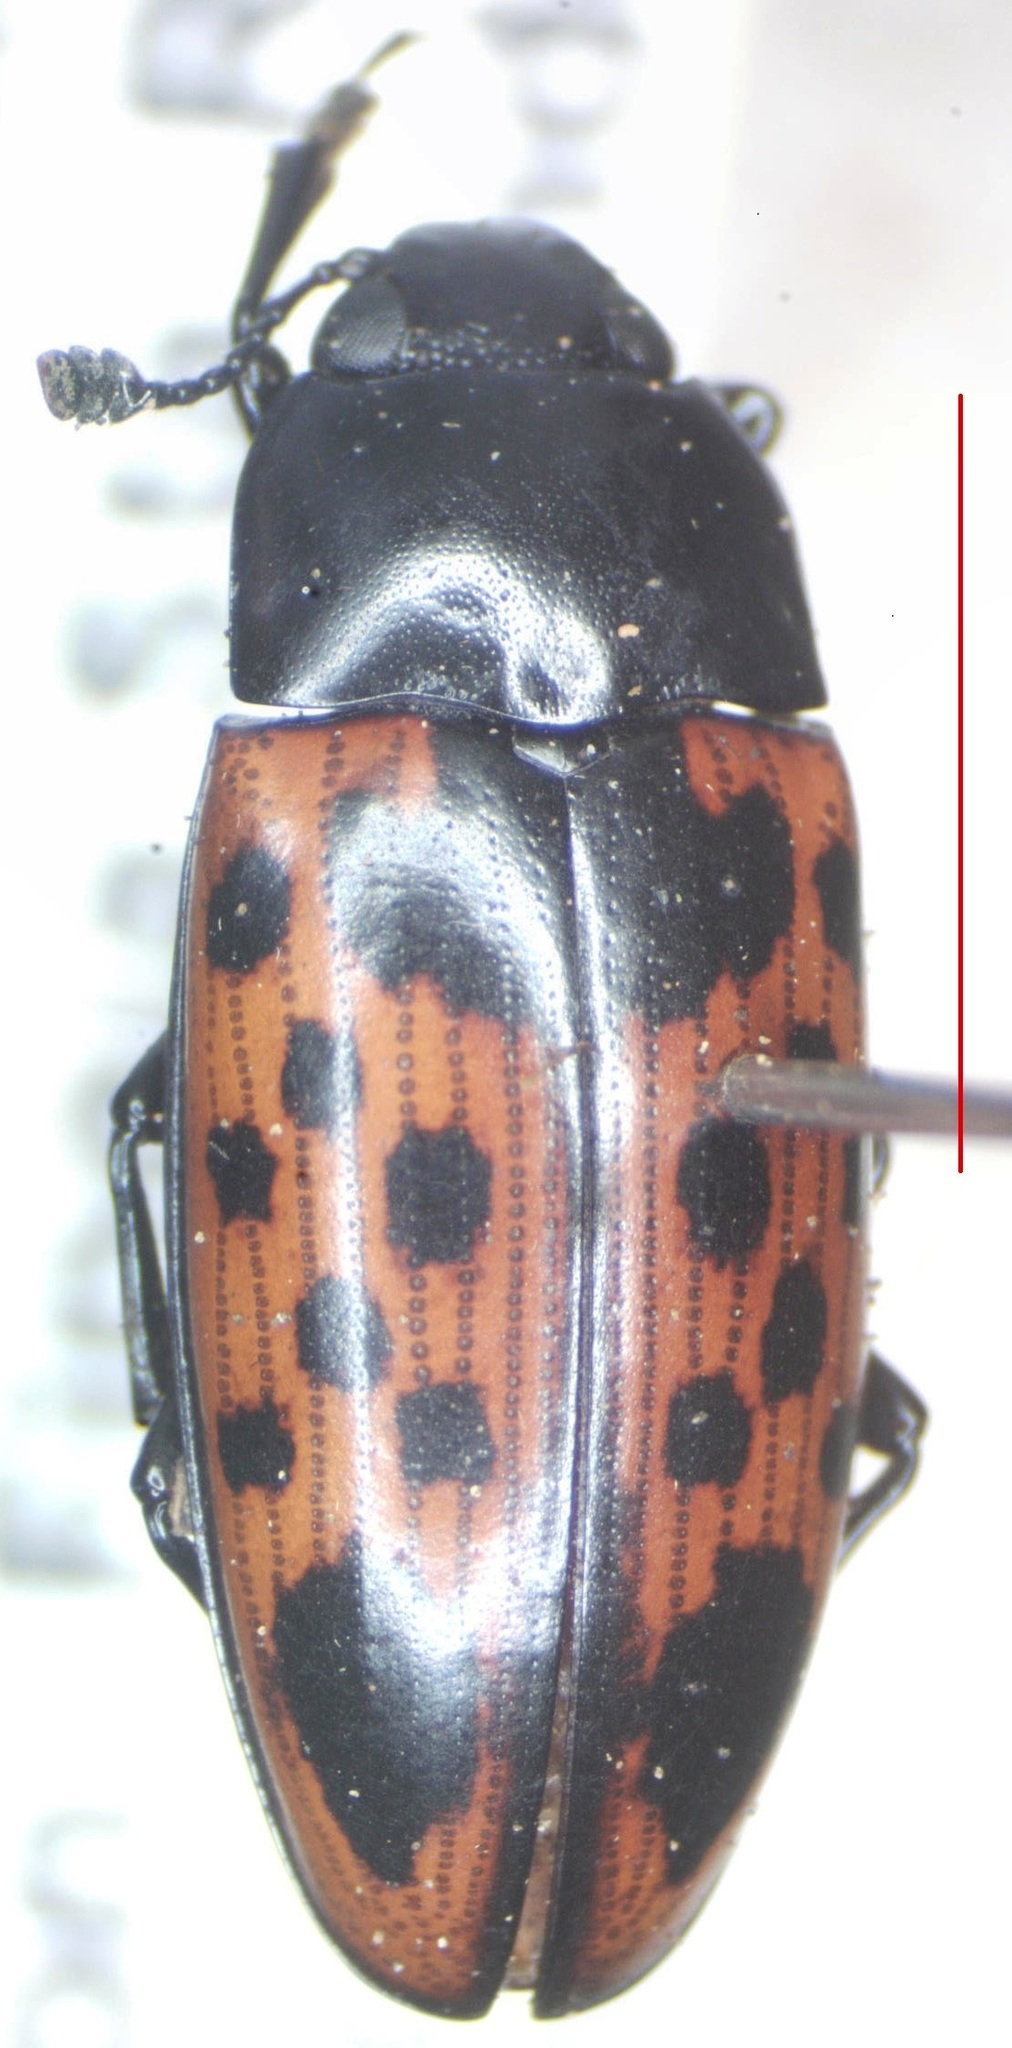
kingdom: Animalia
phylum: Arthropoda
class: Insecta
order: Coleoptera
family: Erotylidae
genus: Pselaphacus
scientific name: Pselaphacus signatus
